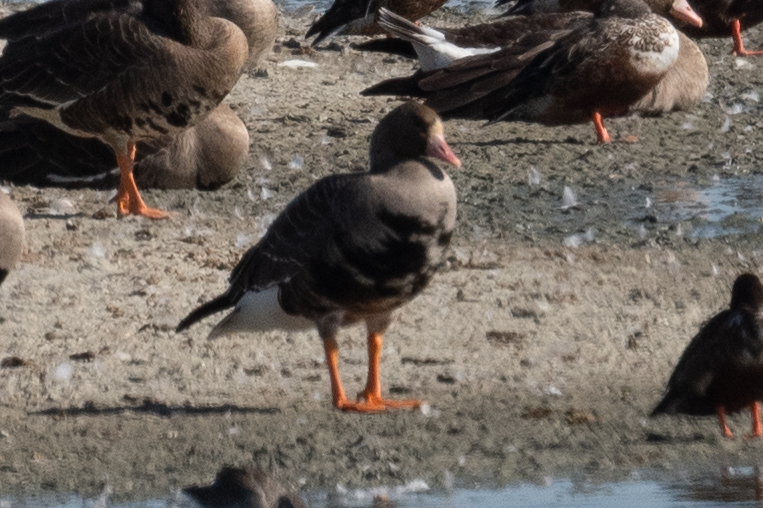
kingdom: Animalia
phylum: Chordata
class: Aves
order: Anseriformes
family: Anatidae
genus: Anser
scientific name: Anser albifrons
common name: Greater white-fronted goose
